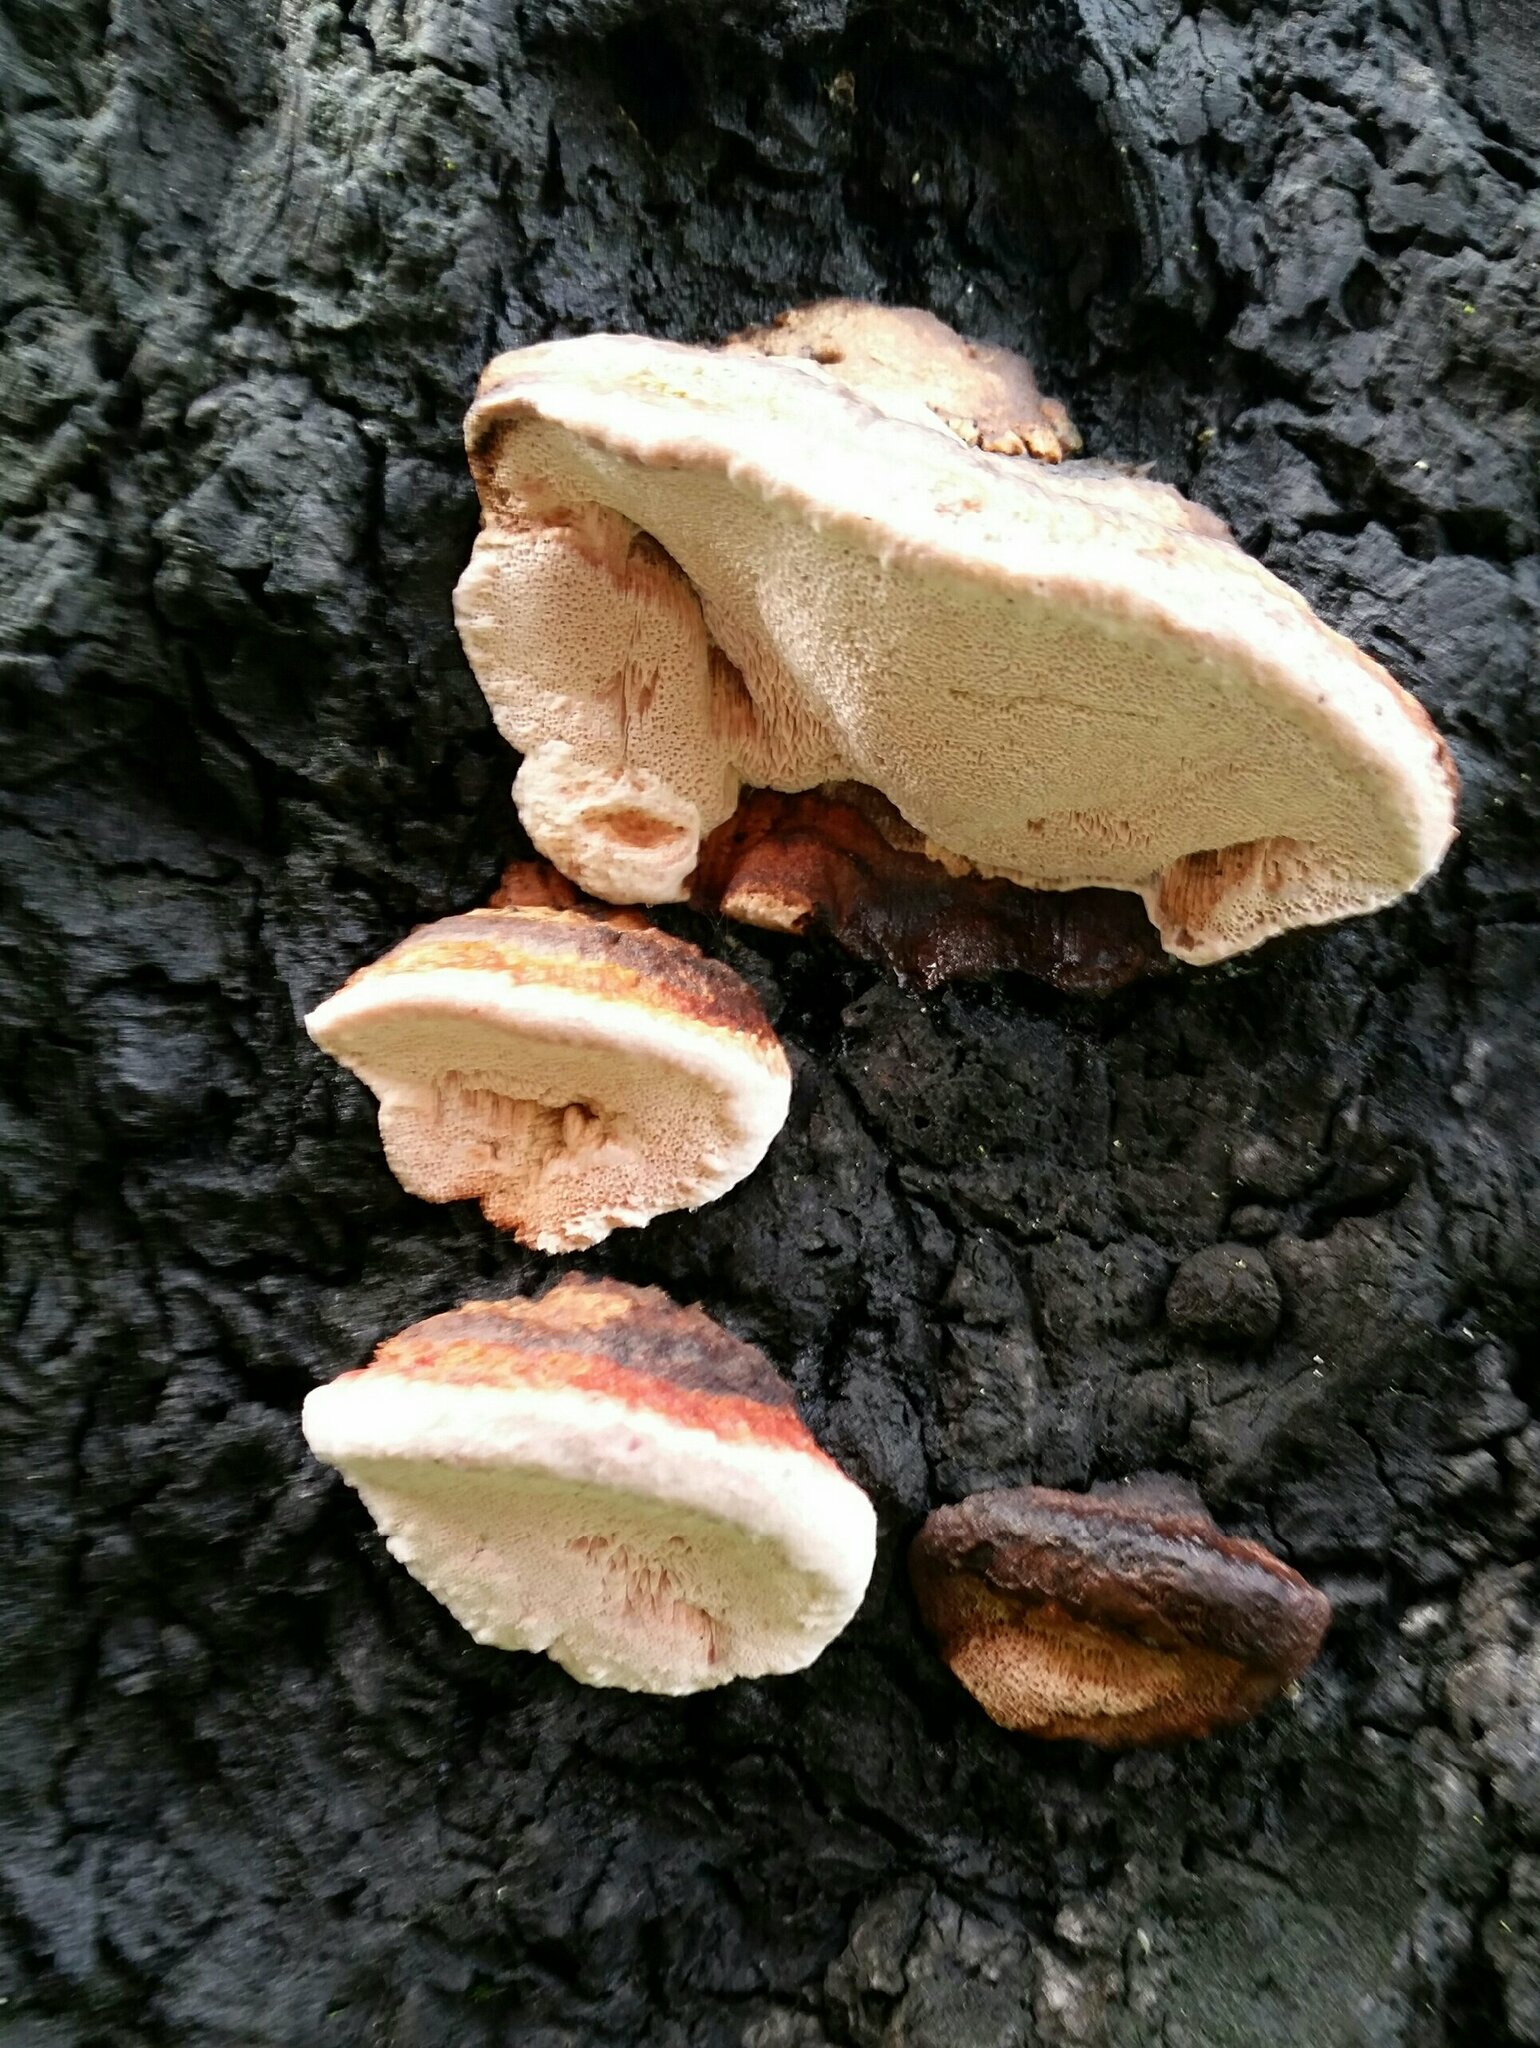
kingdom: Fungi
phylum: Basidiomycota
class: Agaricomycetes
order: Polyporales
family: Fomitopsidaceae
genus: Rhodofomes
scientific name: Rhodofomes cajanderi
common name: Rosy conk
